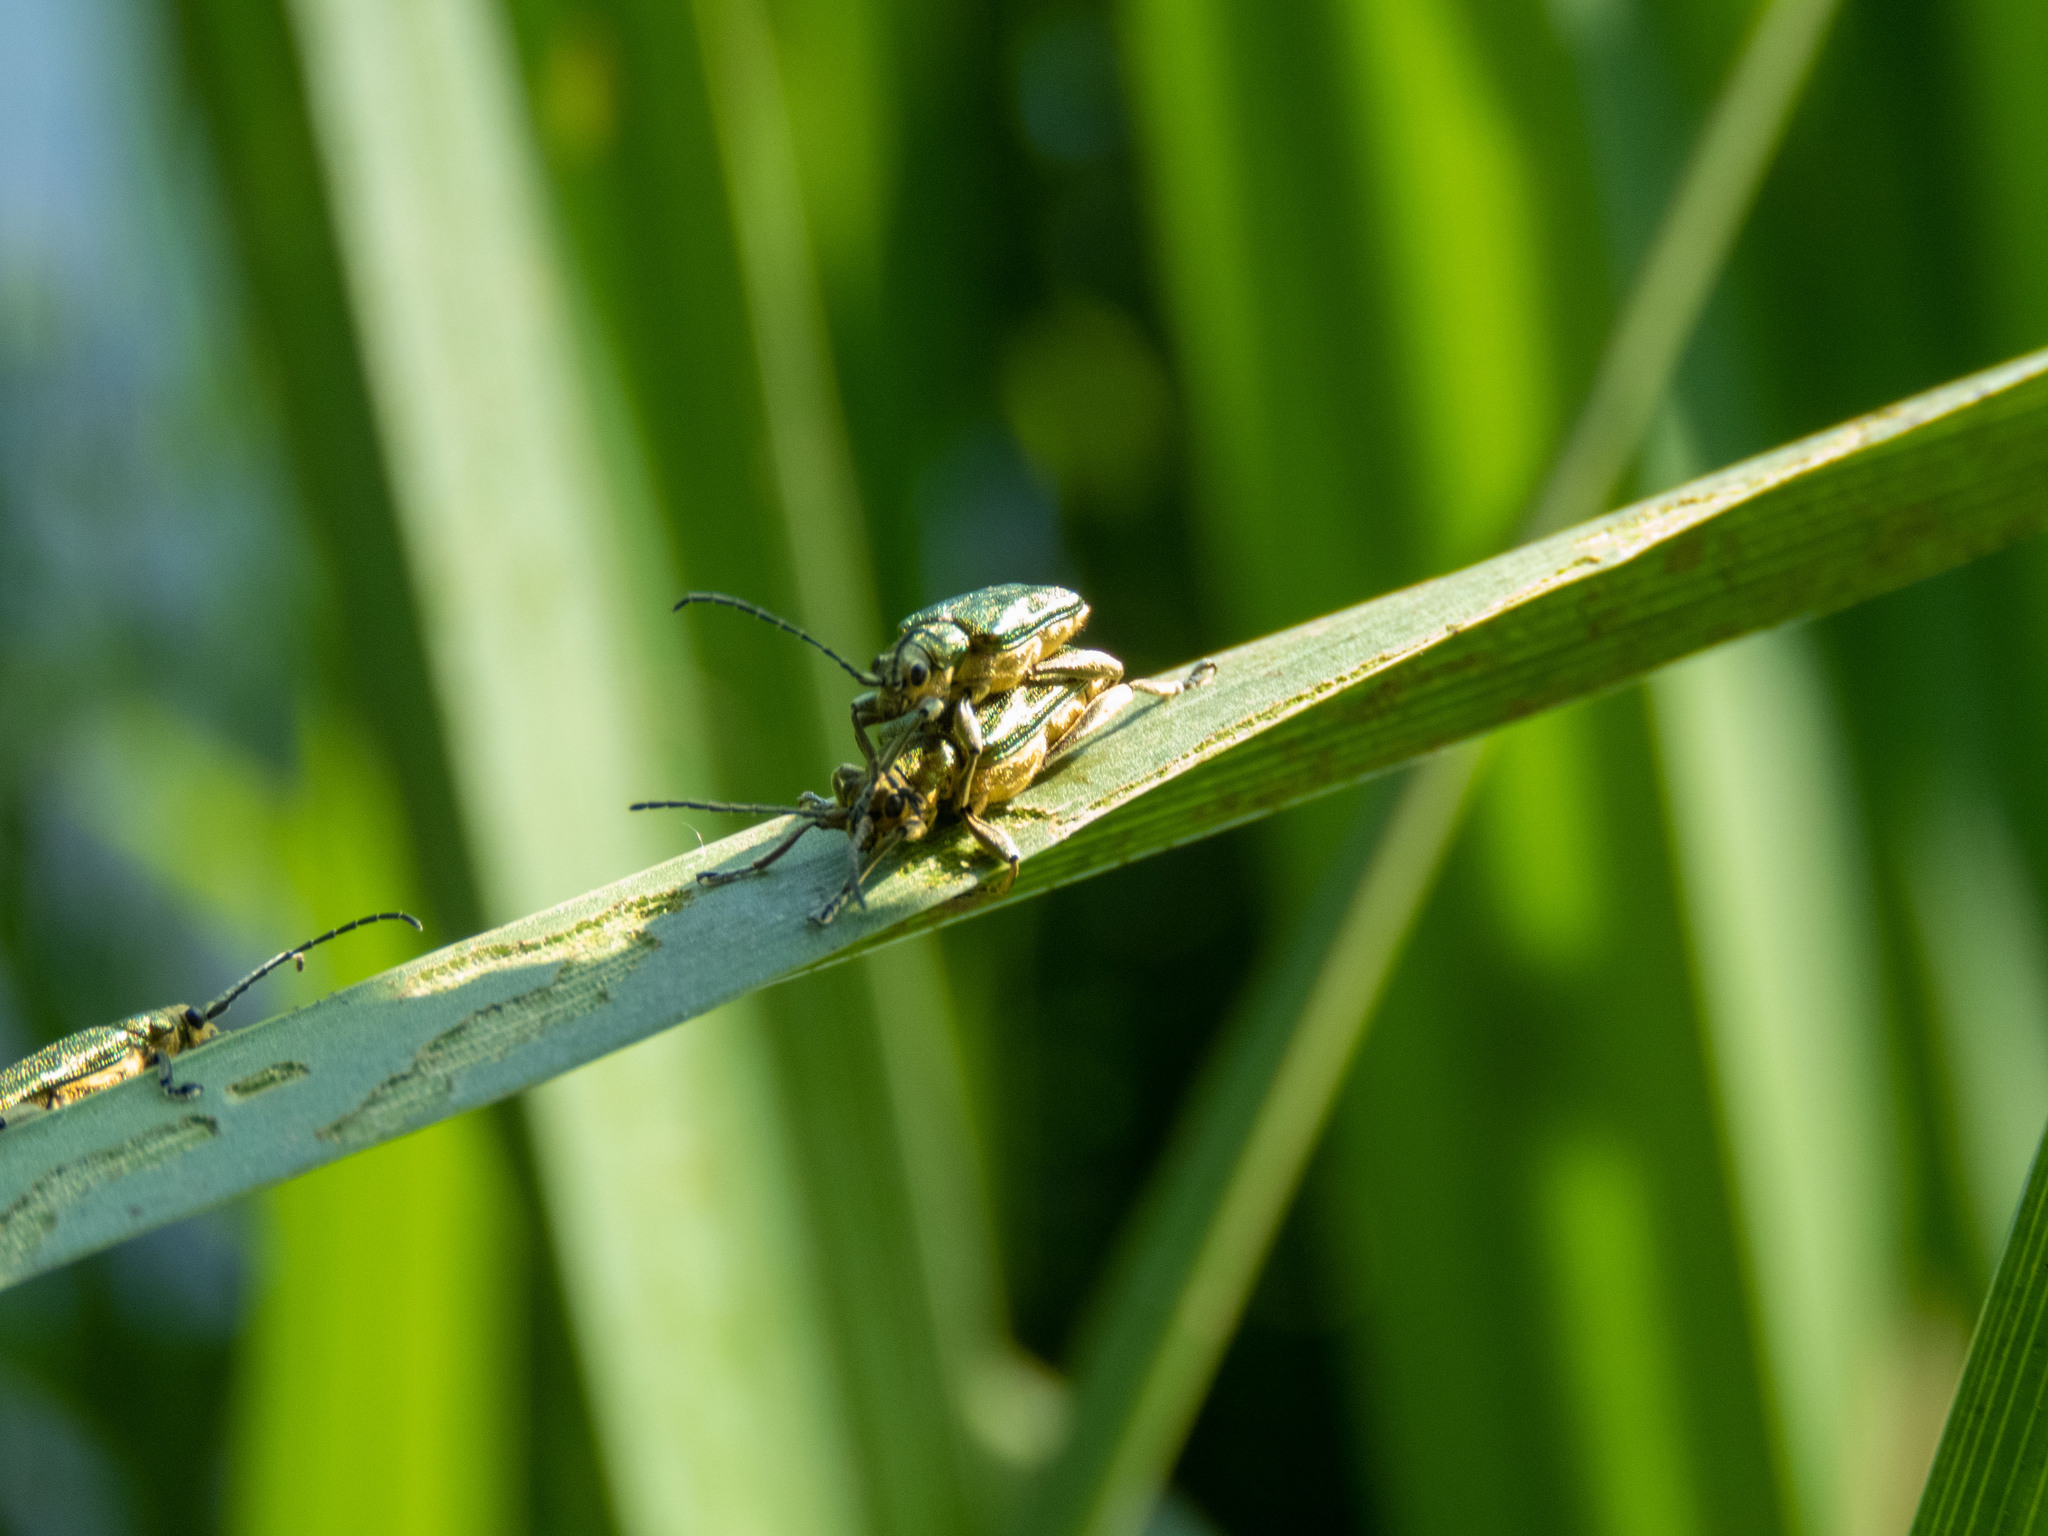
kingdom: Animalia
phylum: Arthropoda
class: Insecta
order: Coleoptera
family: Chrysomelidae
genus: Donacia
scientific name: Donacia bicolora
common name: Reed beetle
